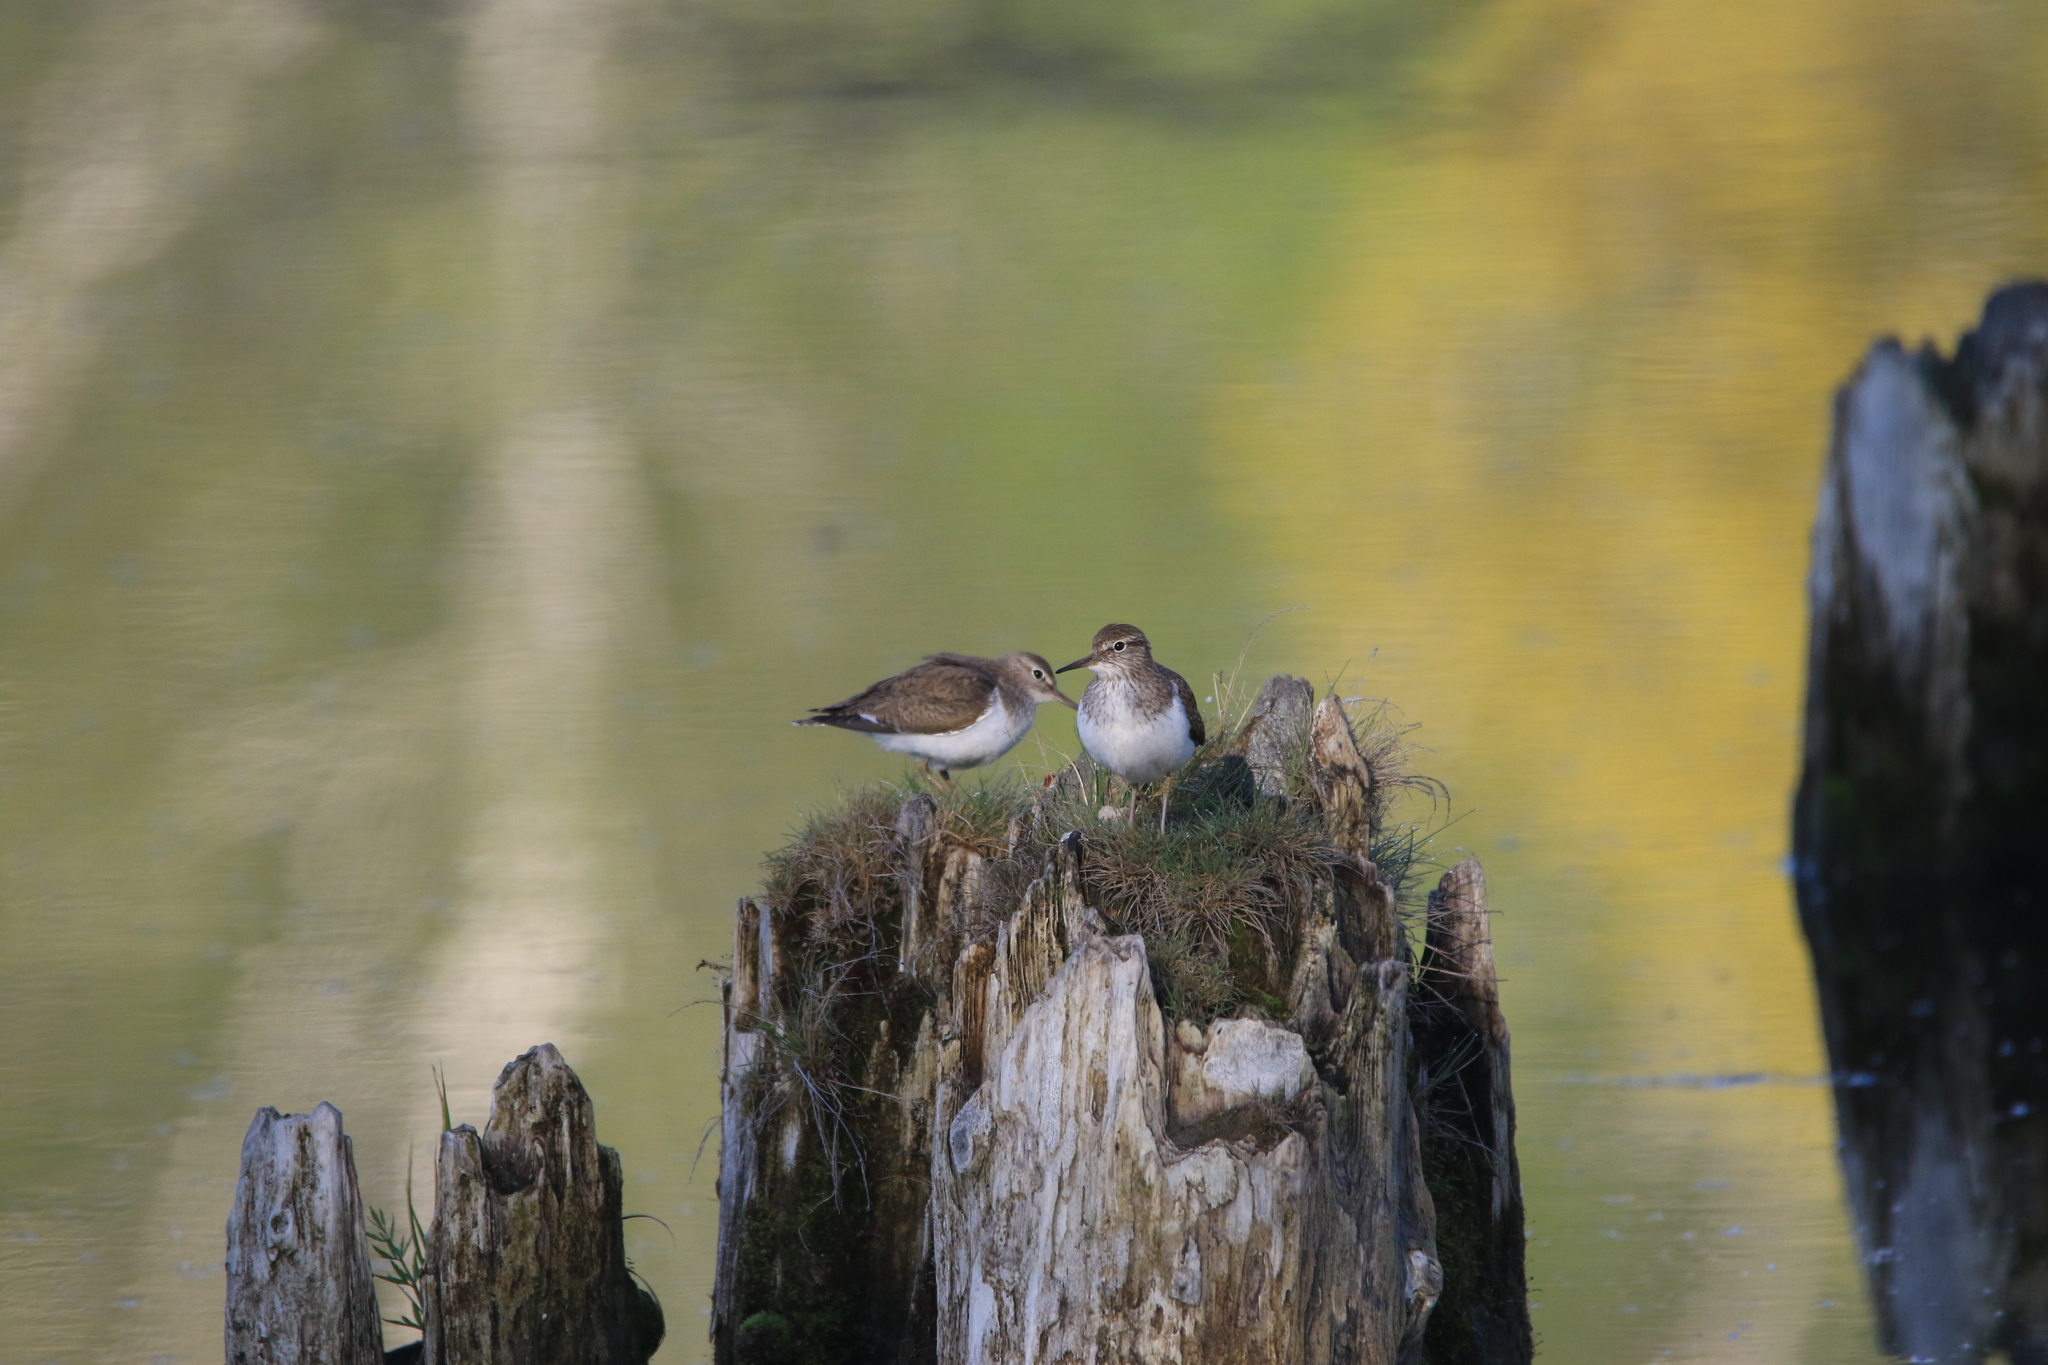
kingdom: Animalia
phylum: Chordata
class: Aves
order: Charadriiformes
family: Scolopacidae
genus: Actitis
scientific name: Actitis hypoleucos
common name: Common sandpiper
